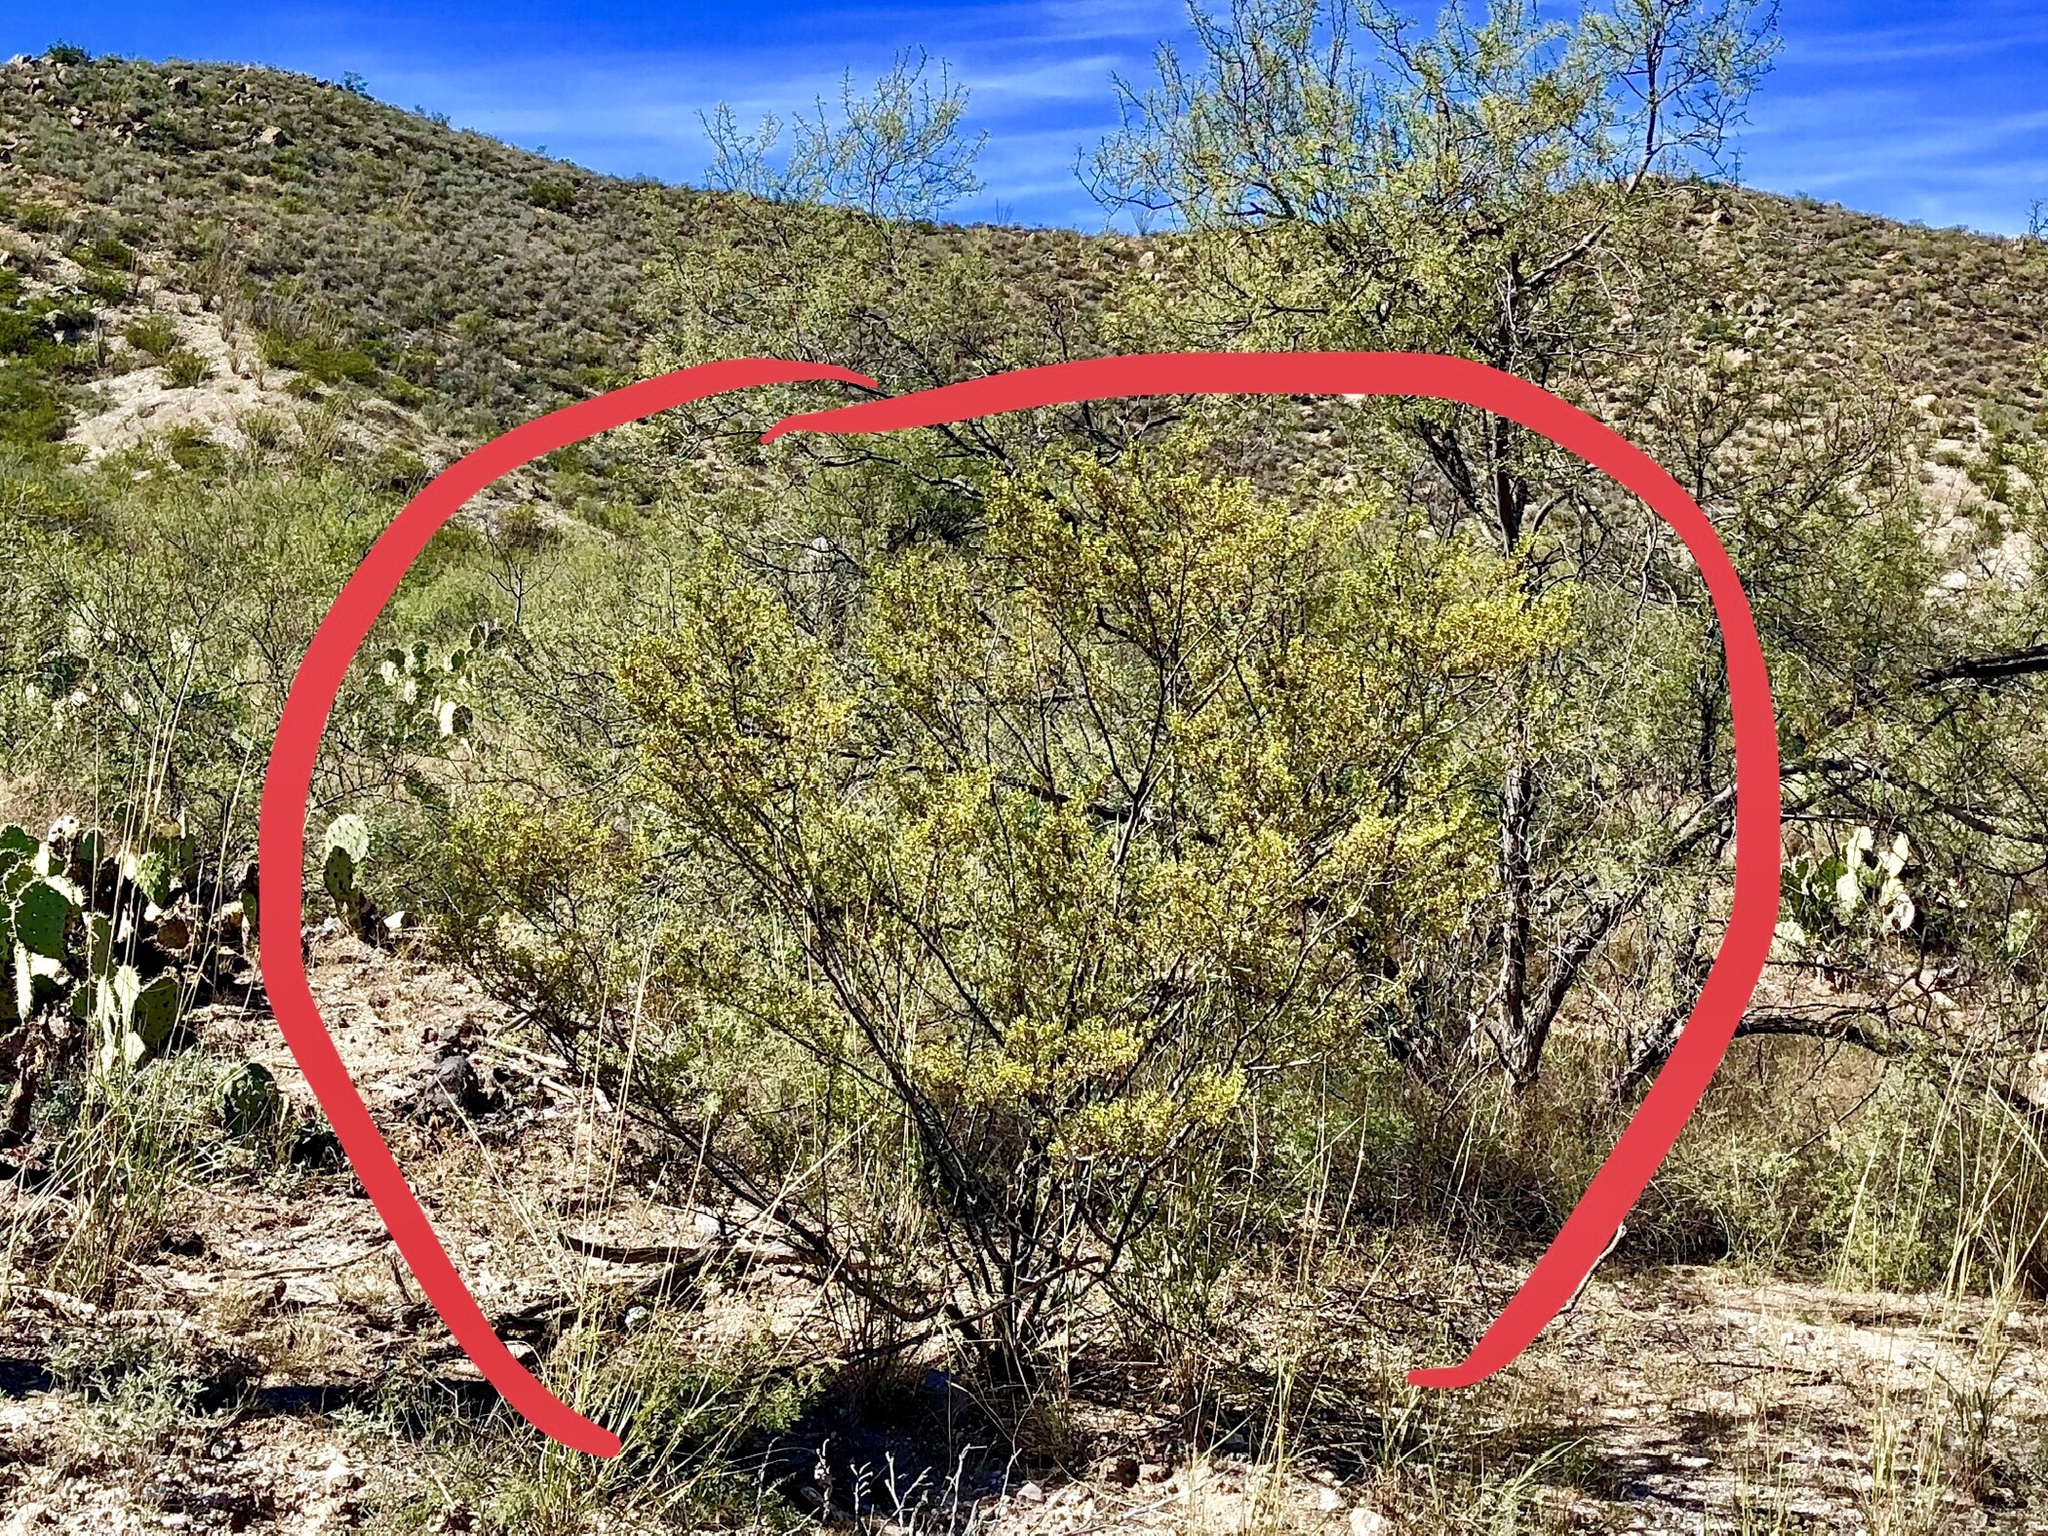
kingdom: Plantae
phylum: Tracheophyta
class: Magnoliopsida
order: Zygophyllales
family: Zygophyllaceae
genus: Larrea
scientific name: Larrea tridentata
